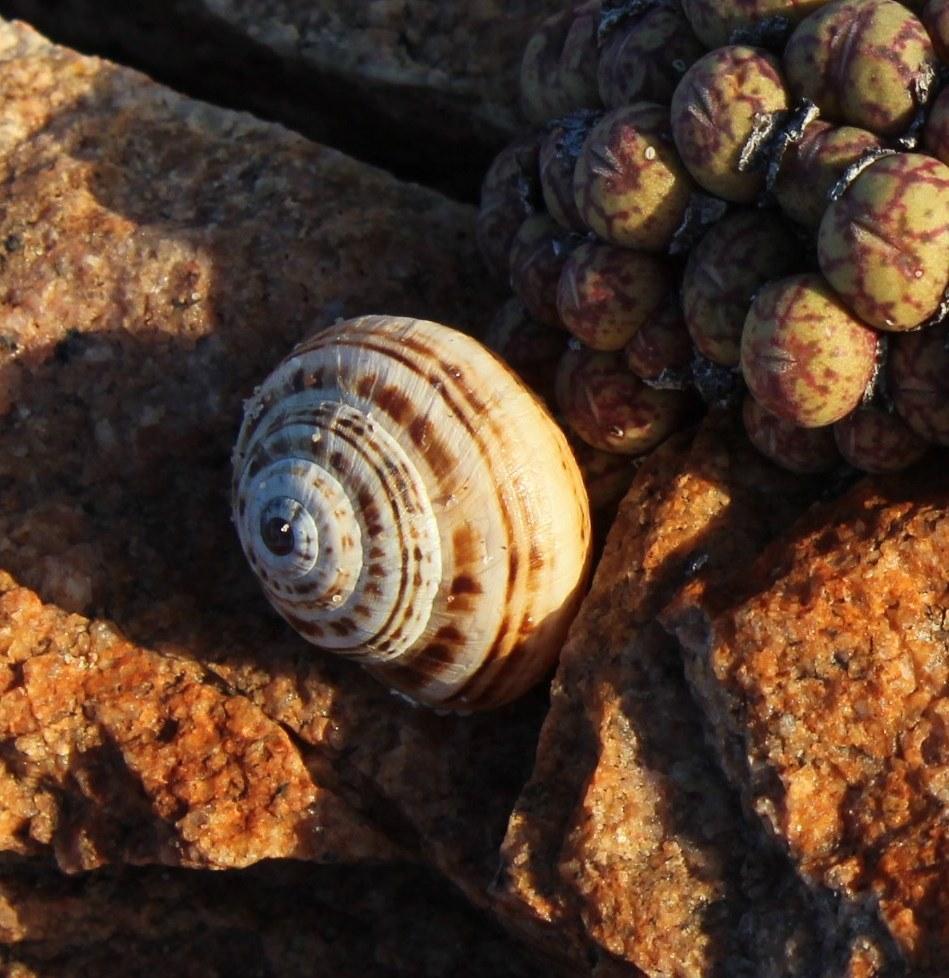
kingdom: Animalia
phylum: Mollusca
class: Gastropoda
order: Stylommatophora
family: Helicidae
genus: Theba
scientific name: Theba pisana
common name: White snail
